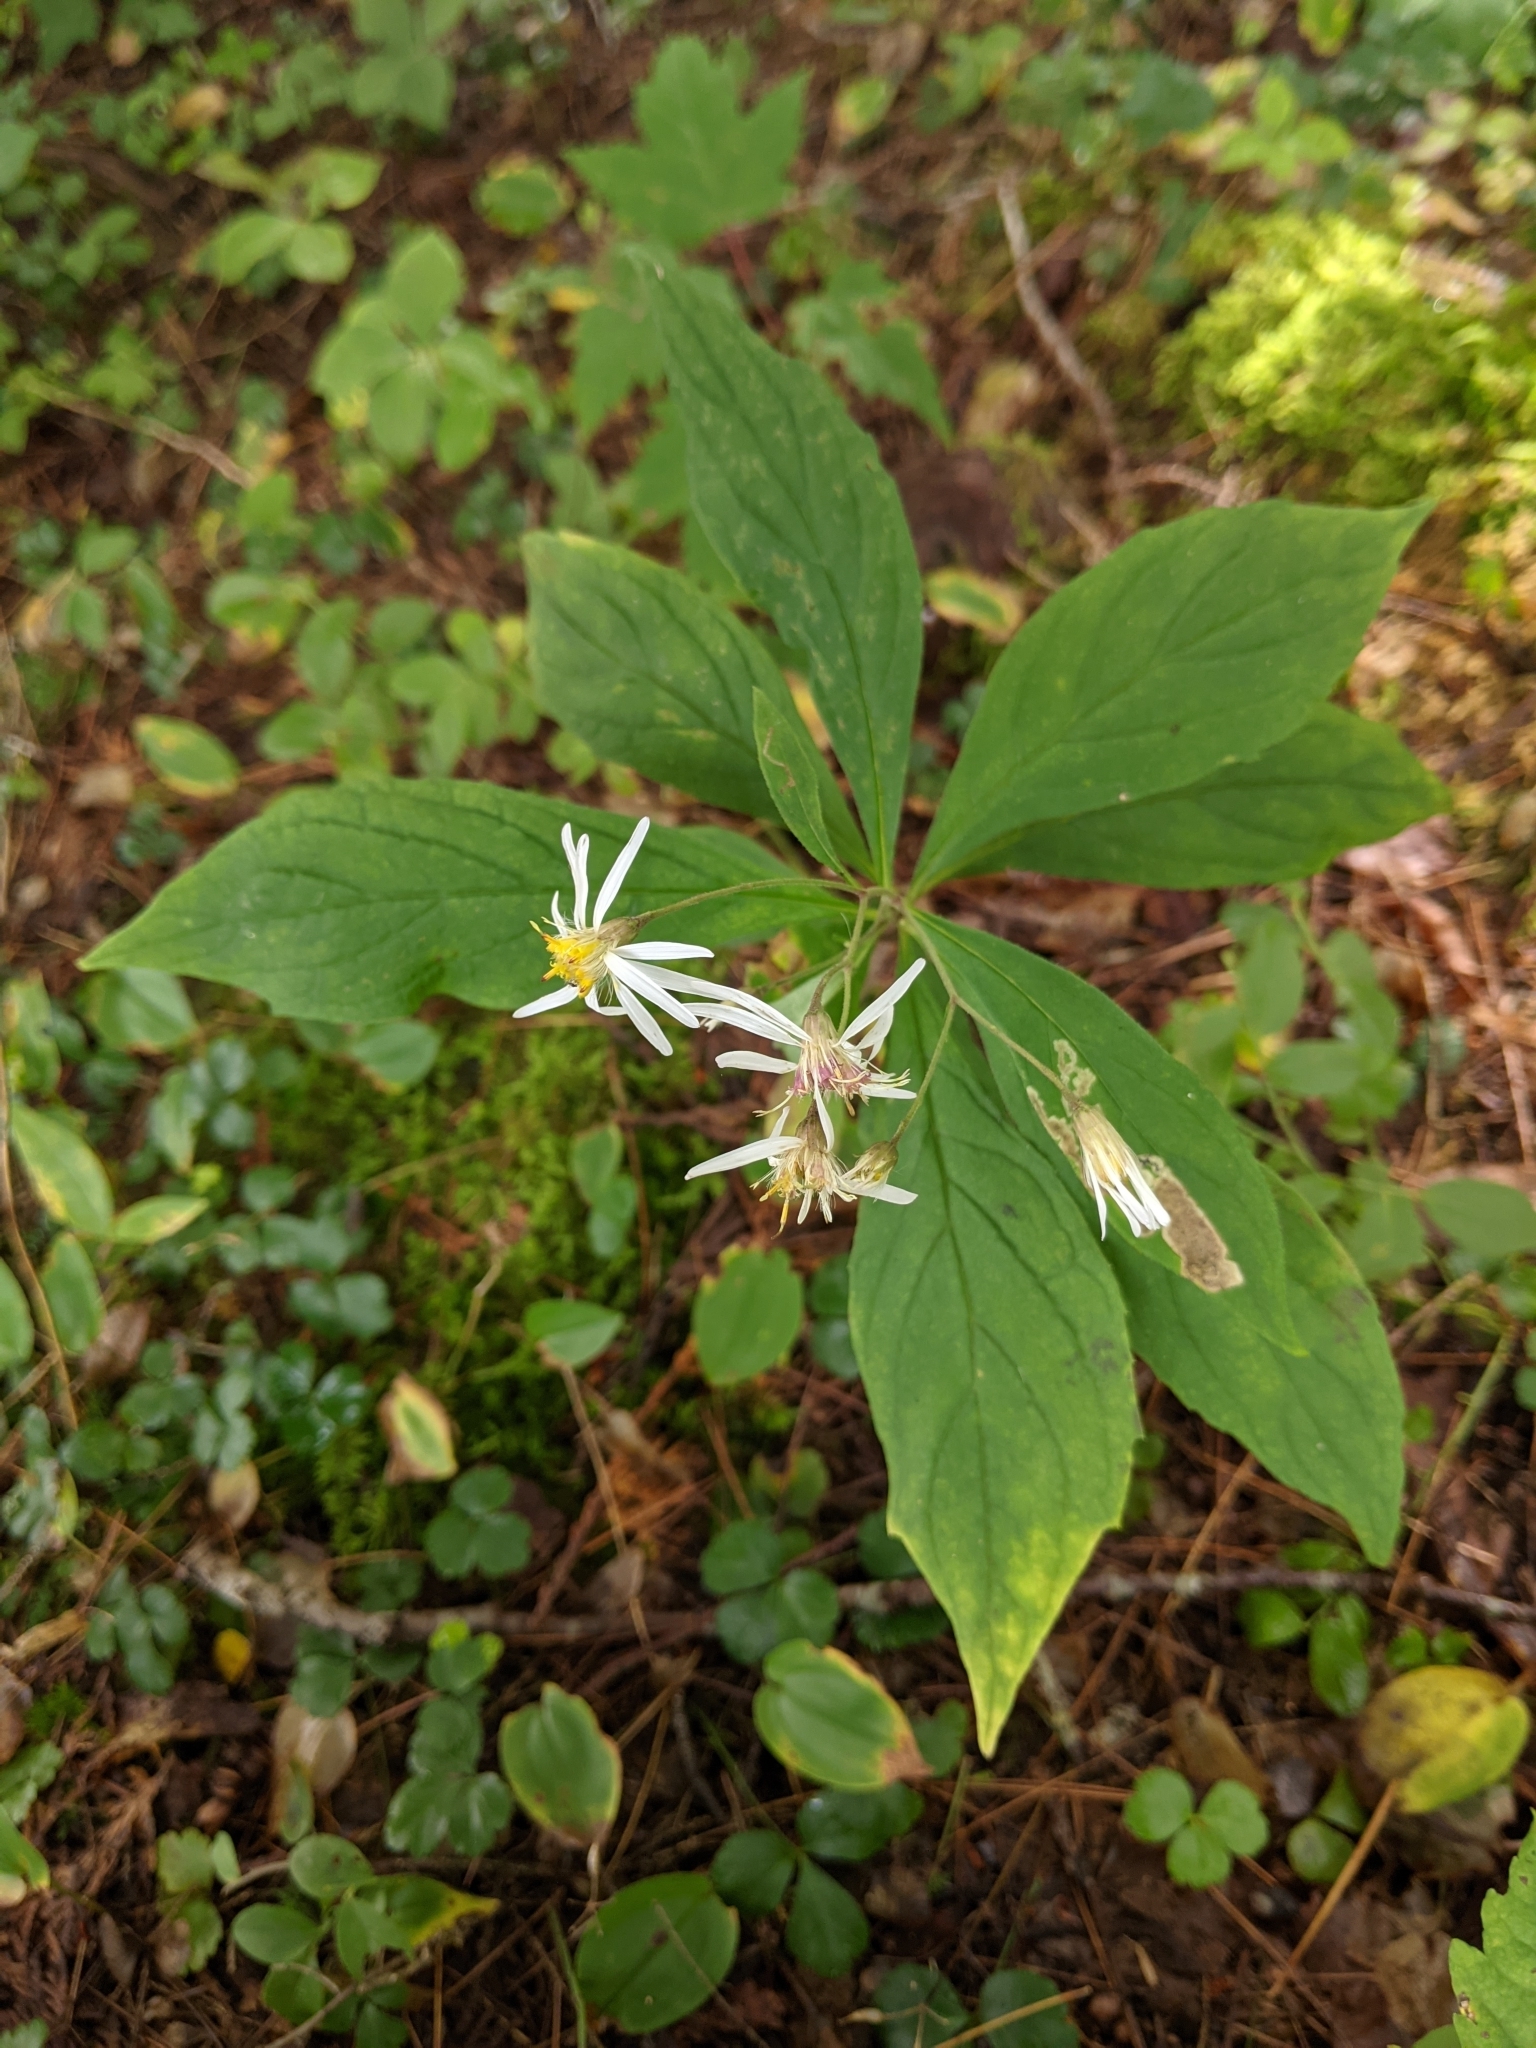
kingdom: Plantae
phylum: Tracheophyta
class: Magnoliopsida
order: Asterales
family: Asteraceae
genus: Oclemena
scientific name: Oclemena acuminata
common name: Mountain aster
